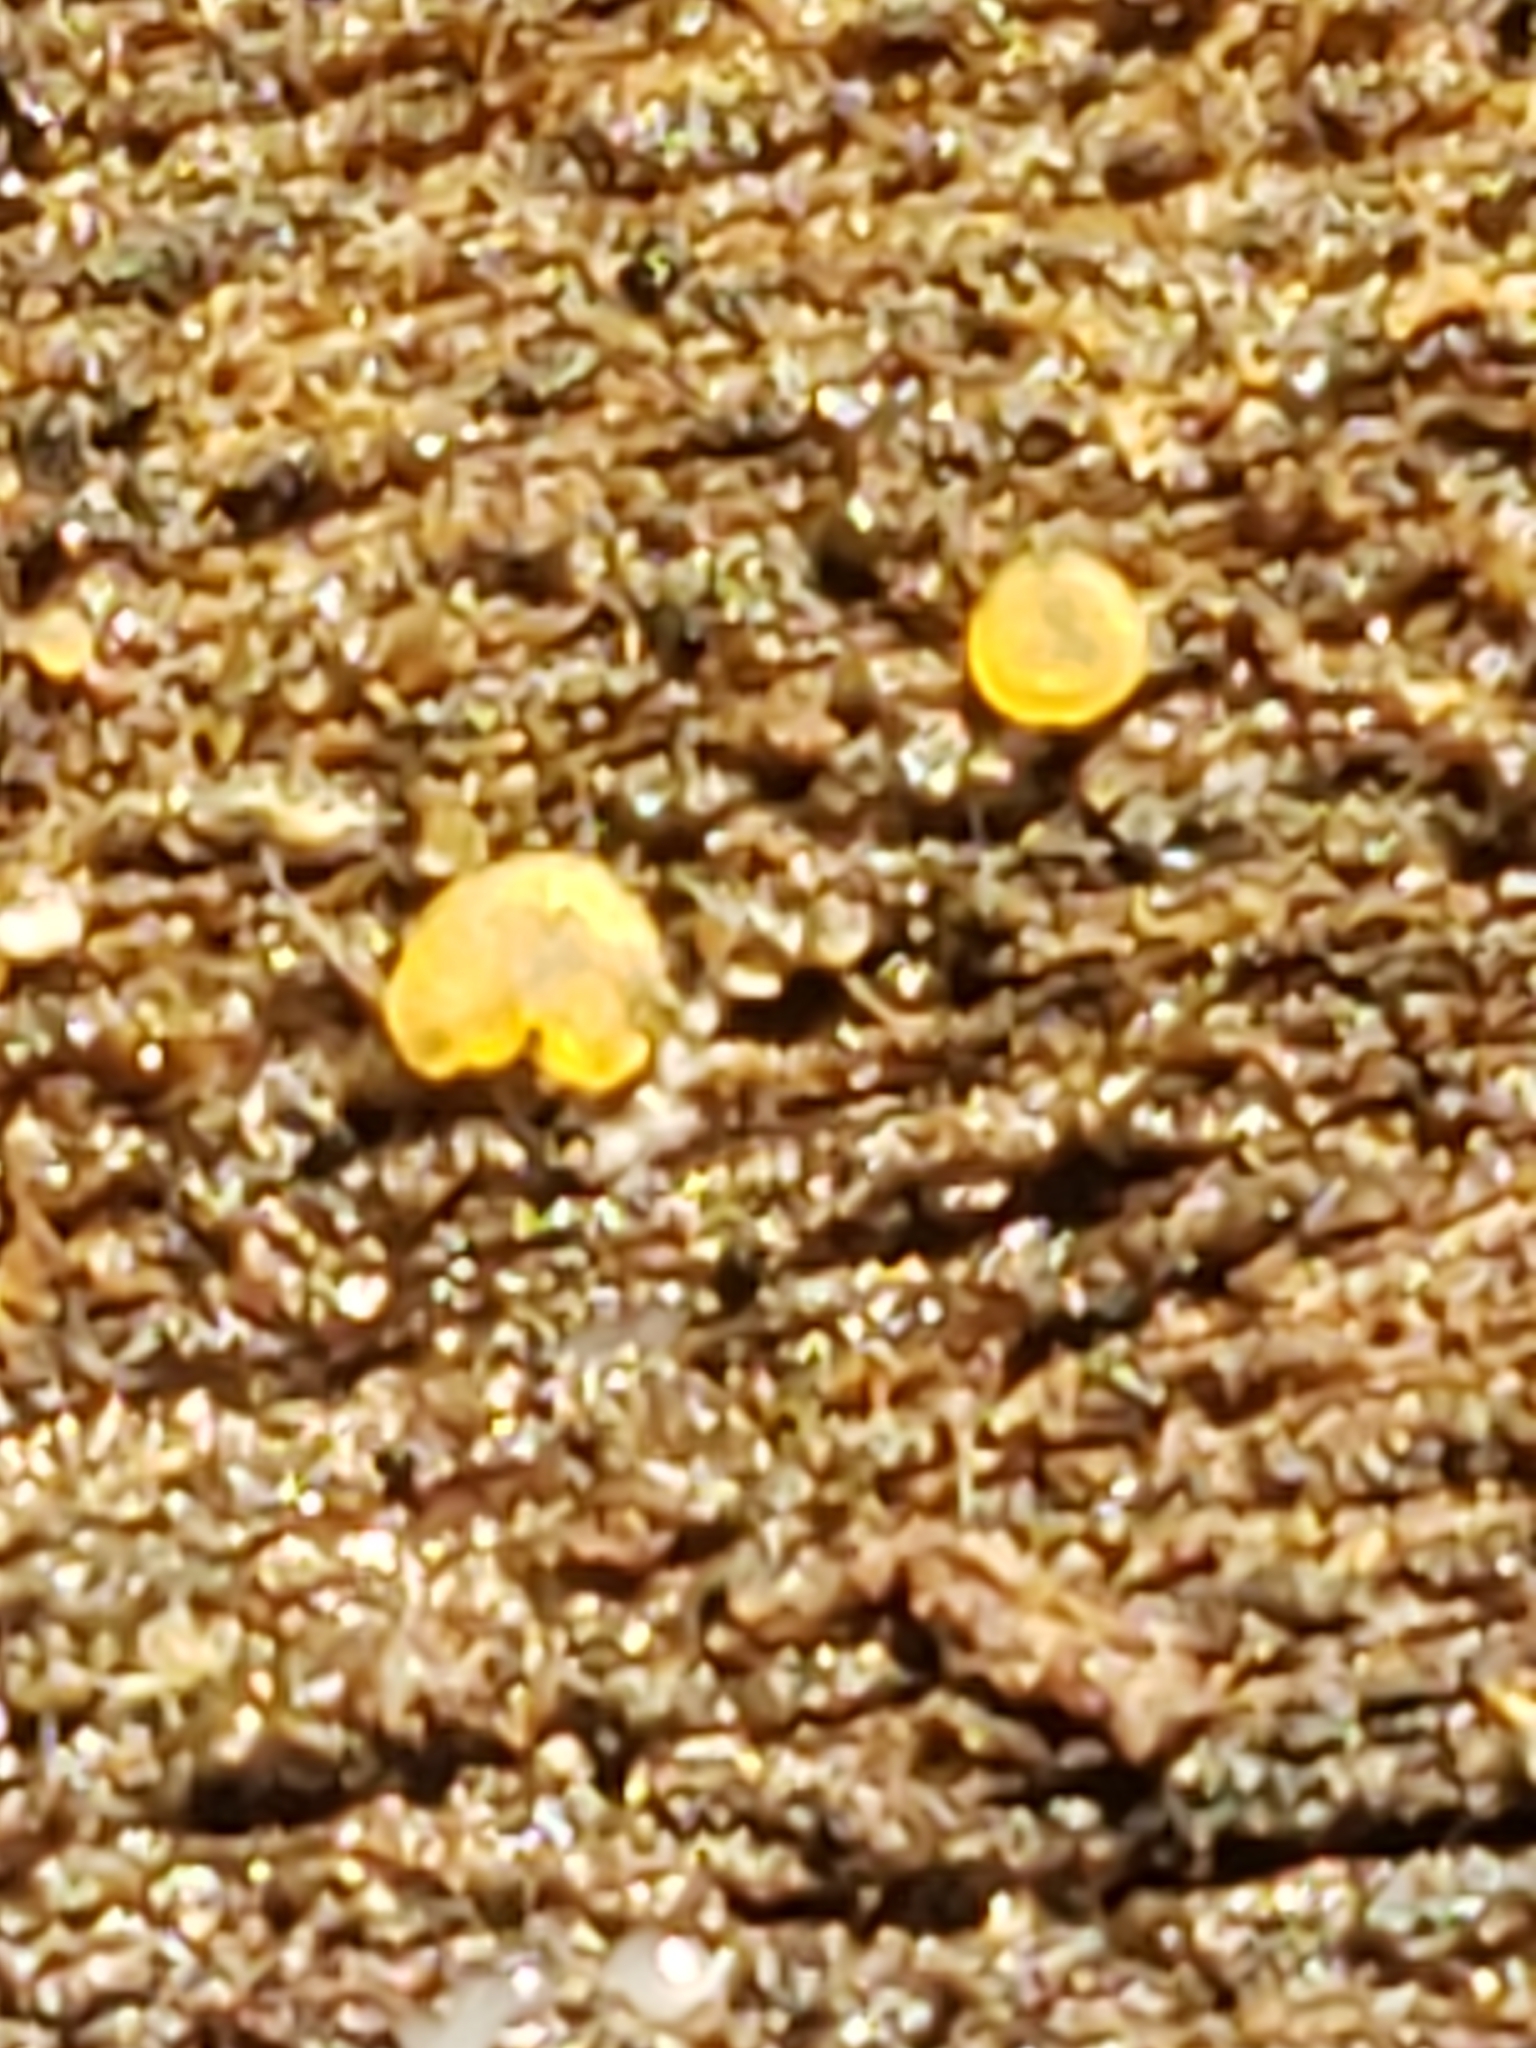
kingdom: Fungi
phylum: Ascomycota
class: Orbiliomycetes
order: Orbiliales
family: Orbiliaceae
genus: Orbilia
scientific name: Orbilia
